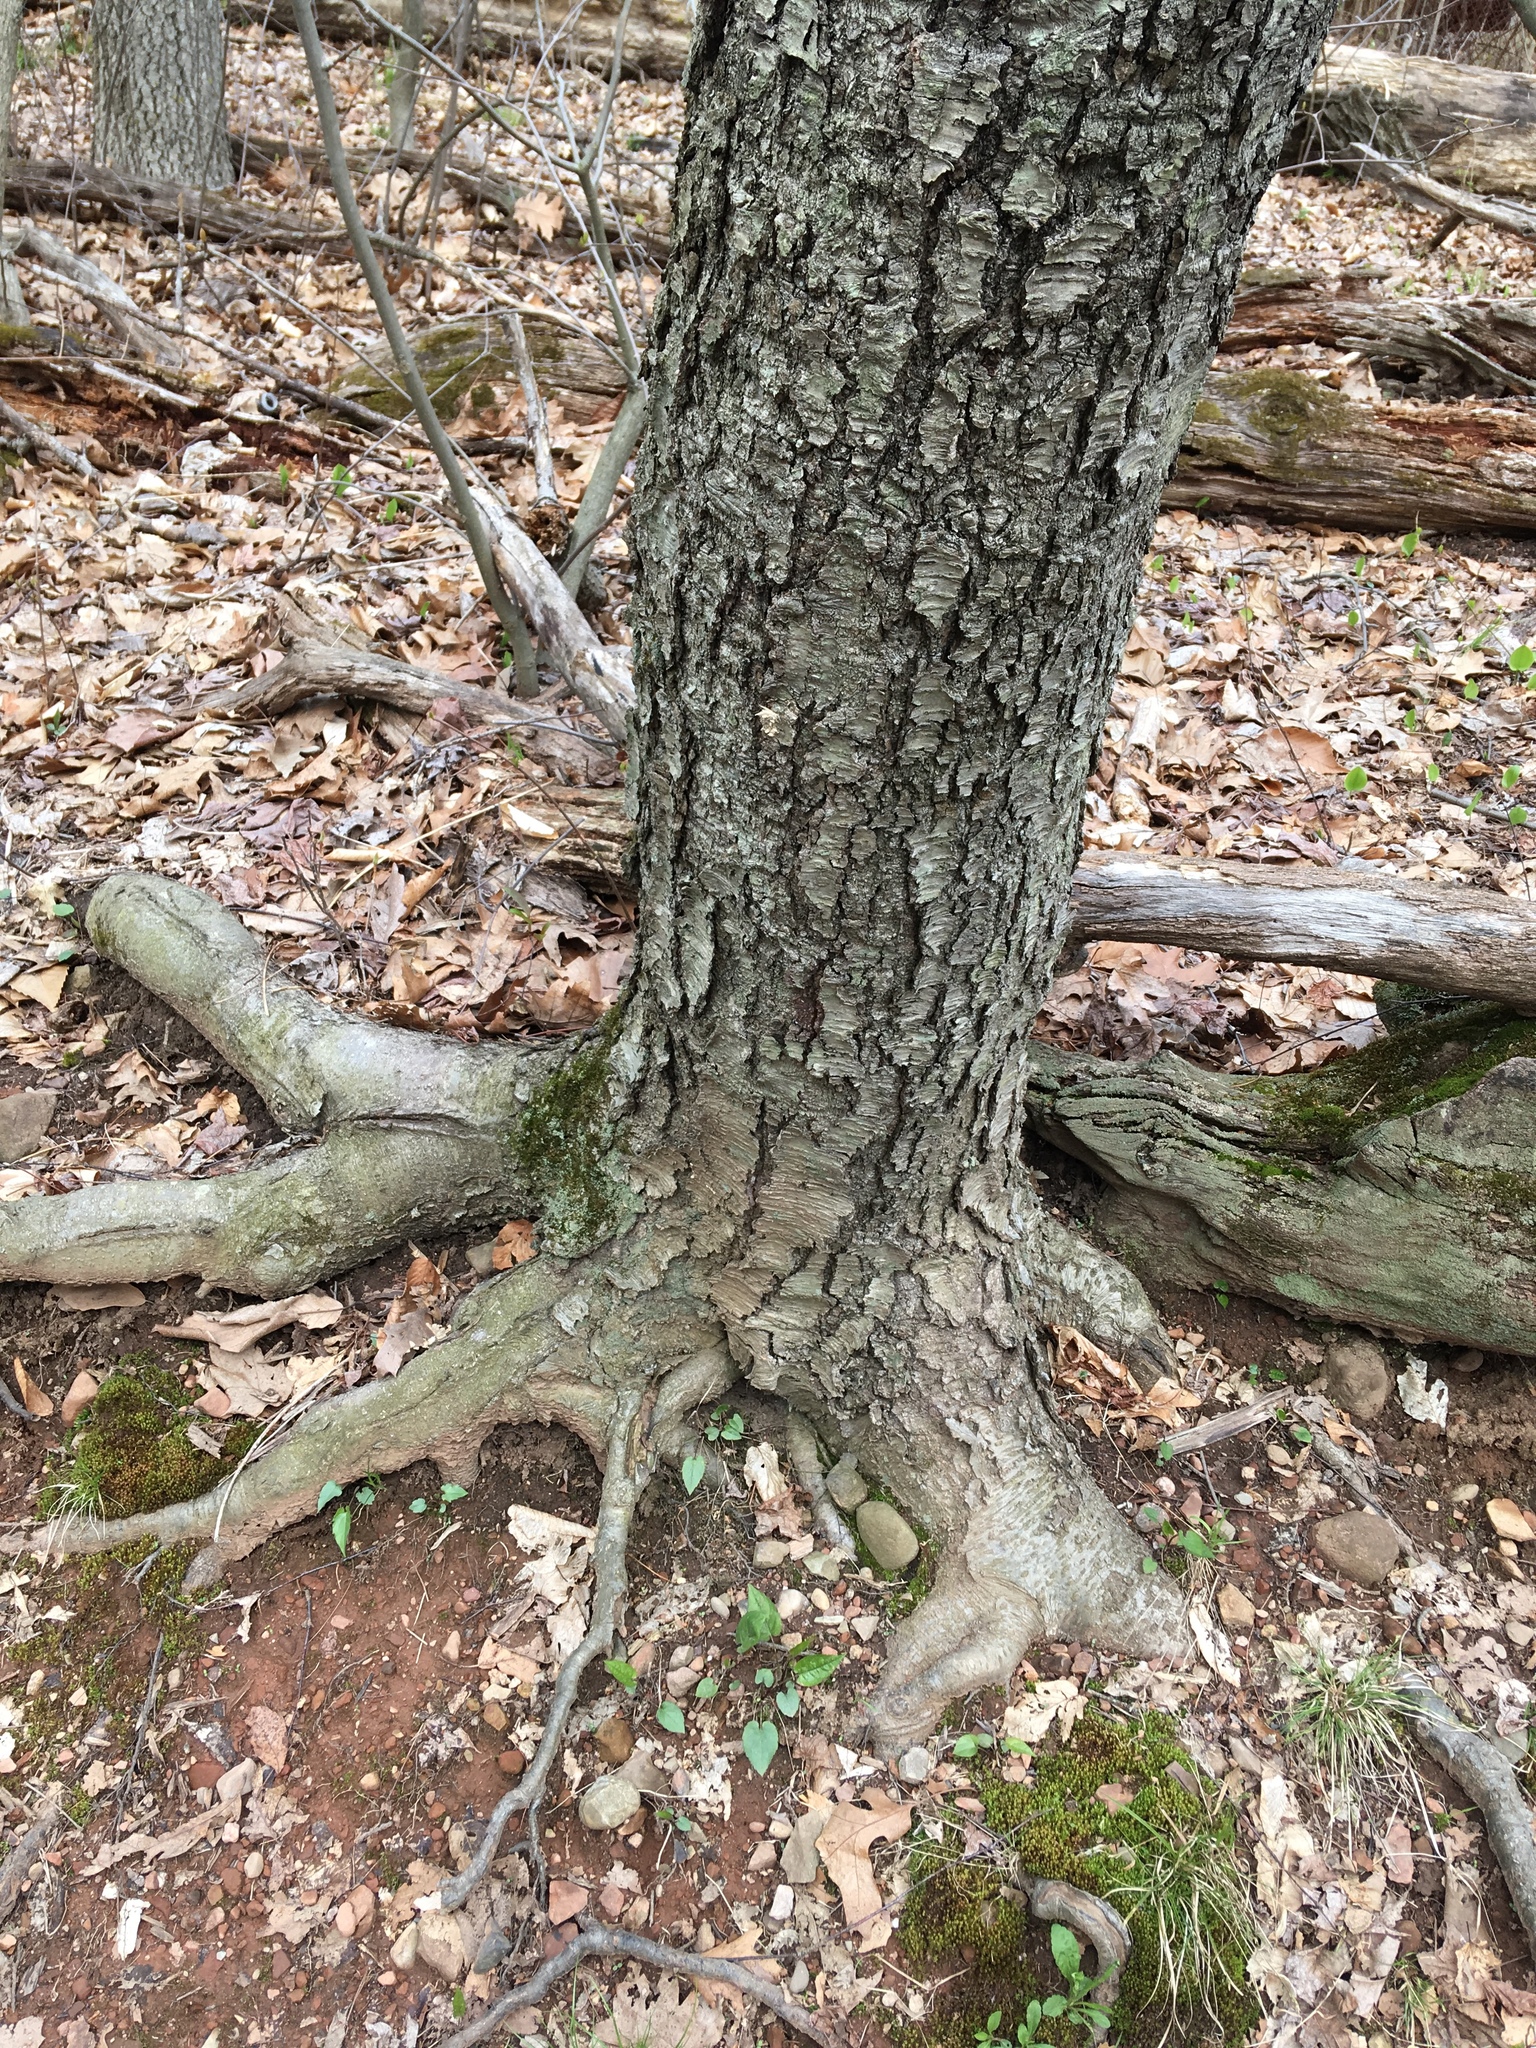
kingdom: Plantae
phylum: Tracheophyta
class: Magnoliopsida
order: Rosales
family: Rosaceae
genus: Prunus
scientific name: Prunus jamasakura
